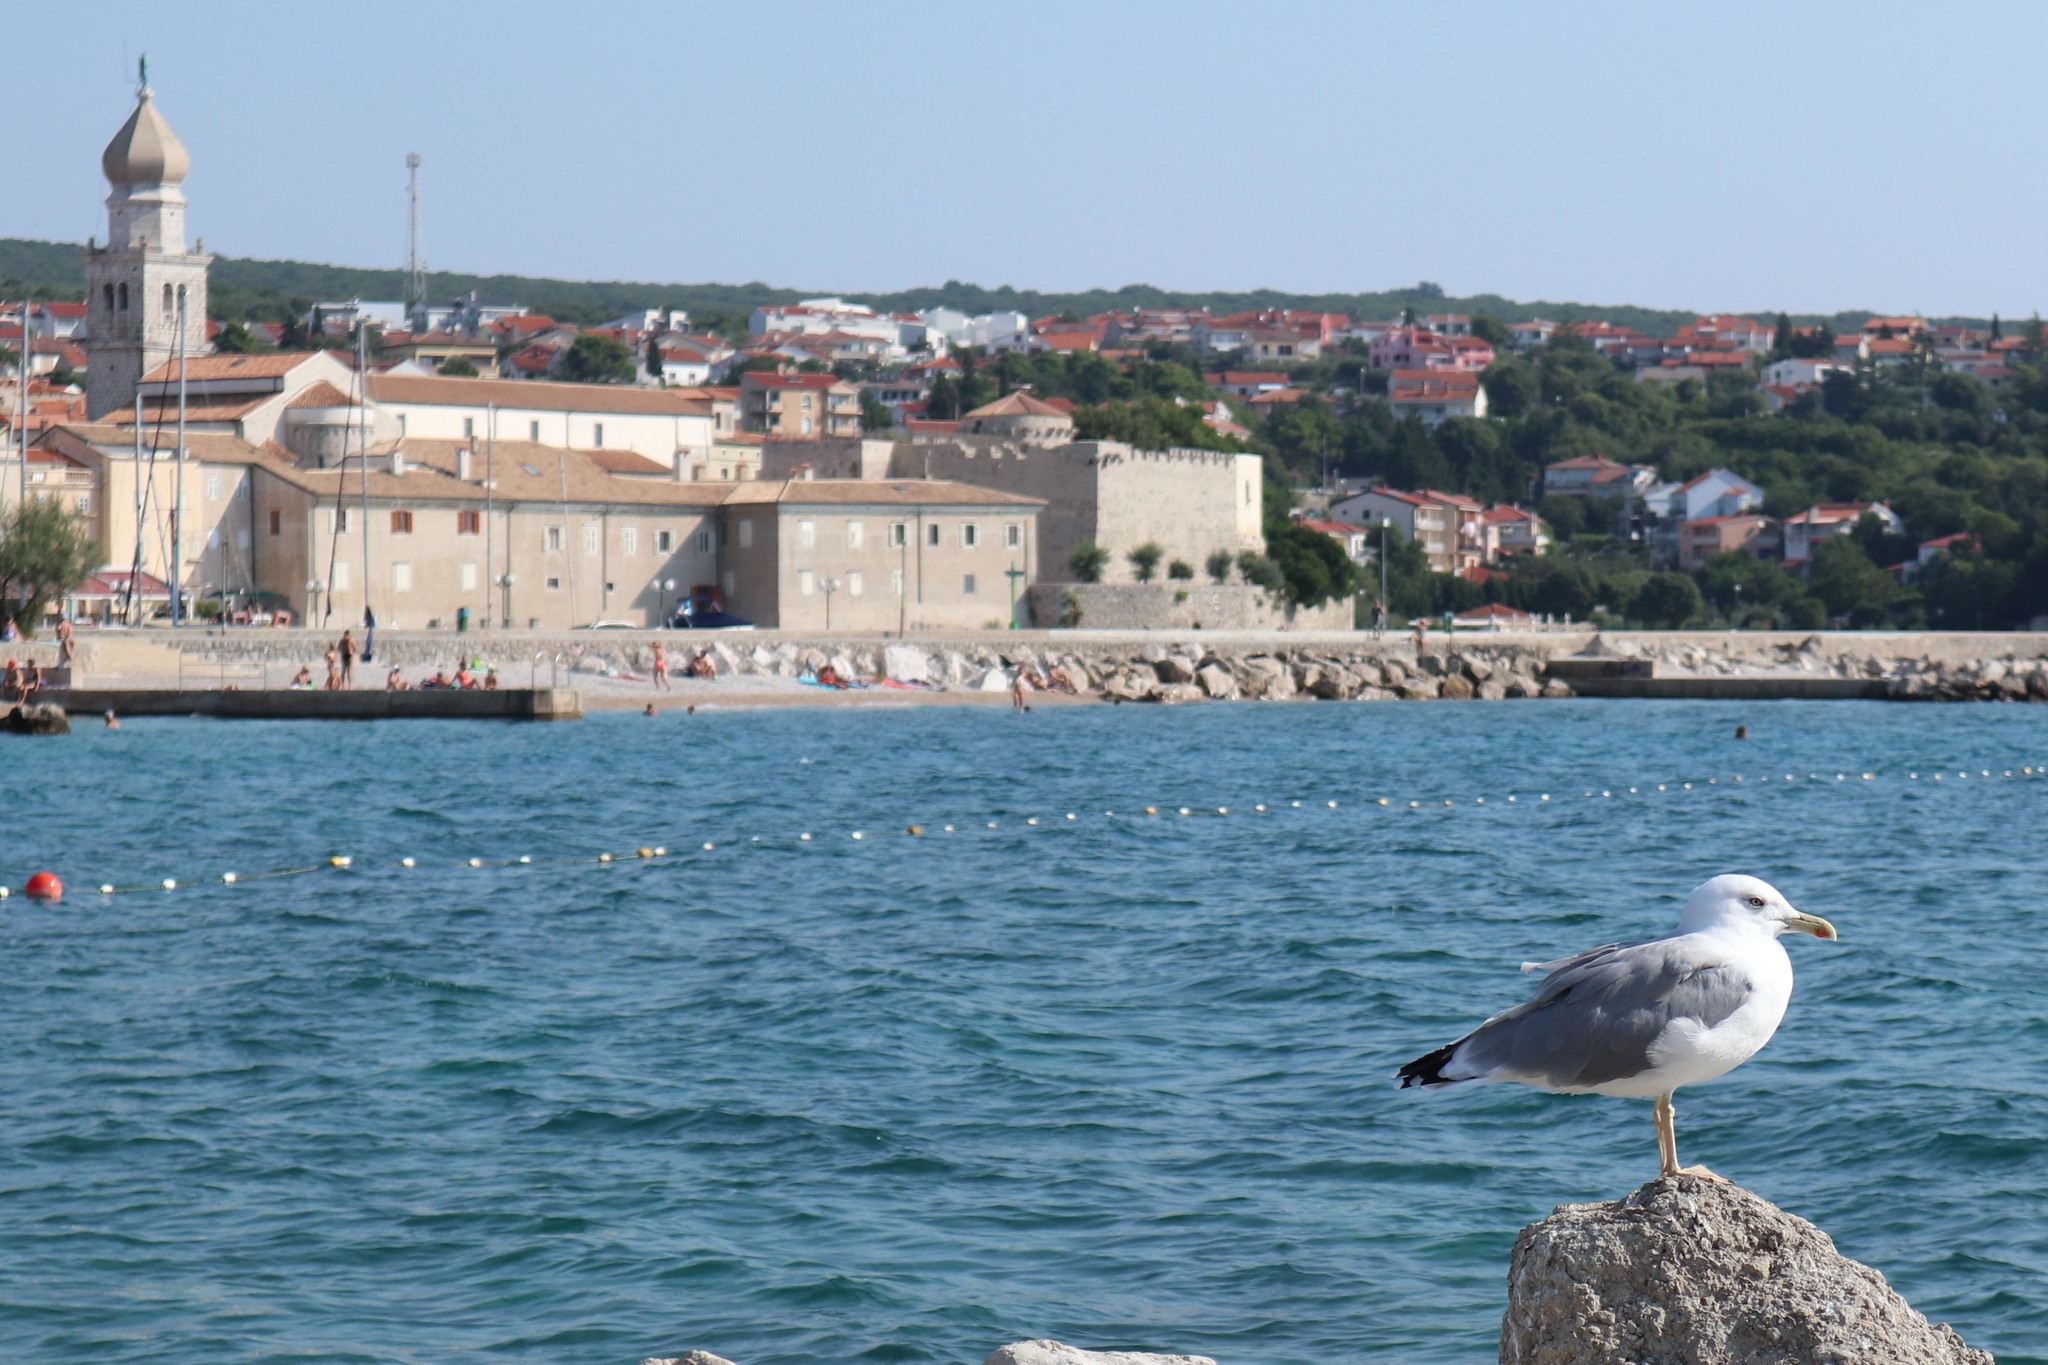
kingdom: Animalia
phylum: Chordata
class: Aves
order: Charadriiformes
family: Laridae
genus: Larus
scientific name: Larus michahellis
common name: Yellow-legged gull
